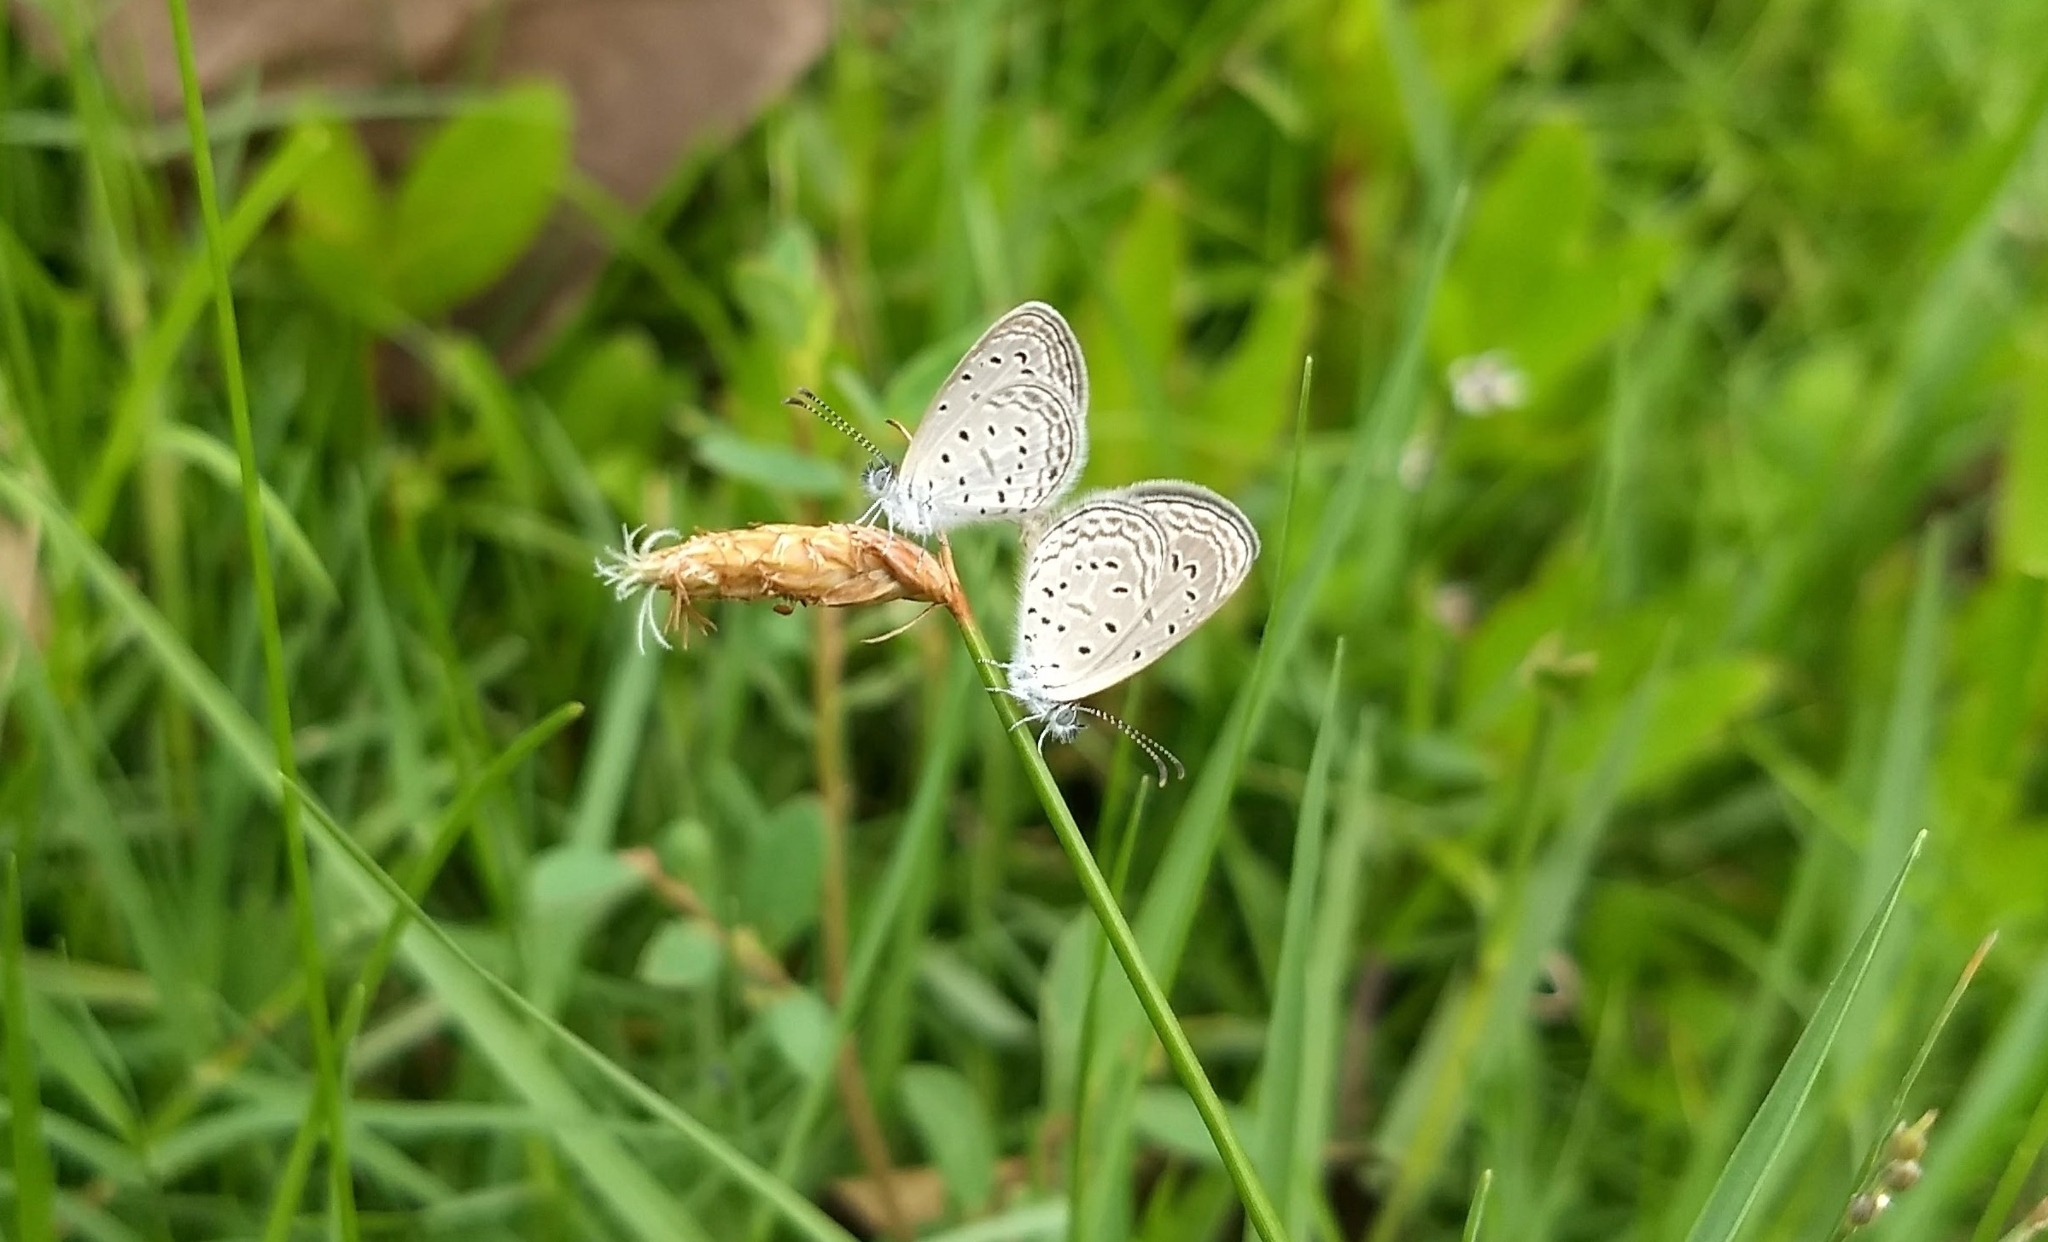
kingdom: Animalia
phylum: Arthropoda
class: Insecta
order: Lepidoptera
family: Lycaenidae
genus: Zizula
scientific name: Zizula hylax
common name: Gaika blue
